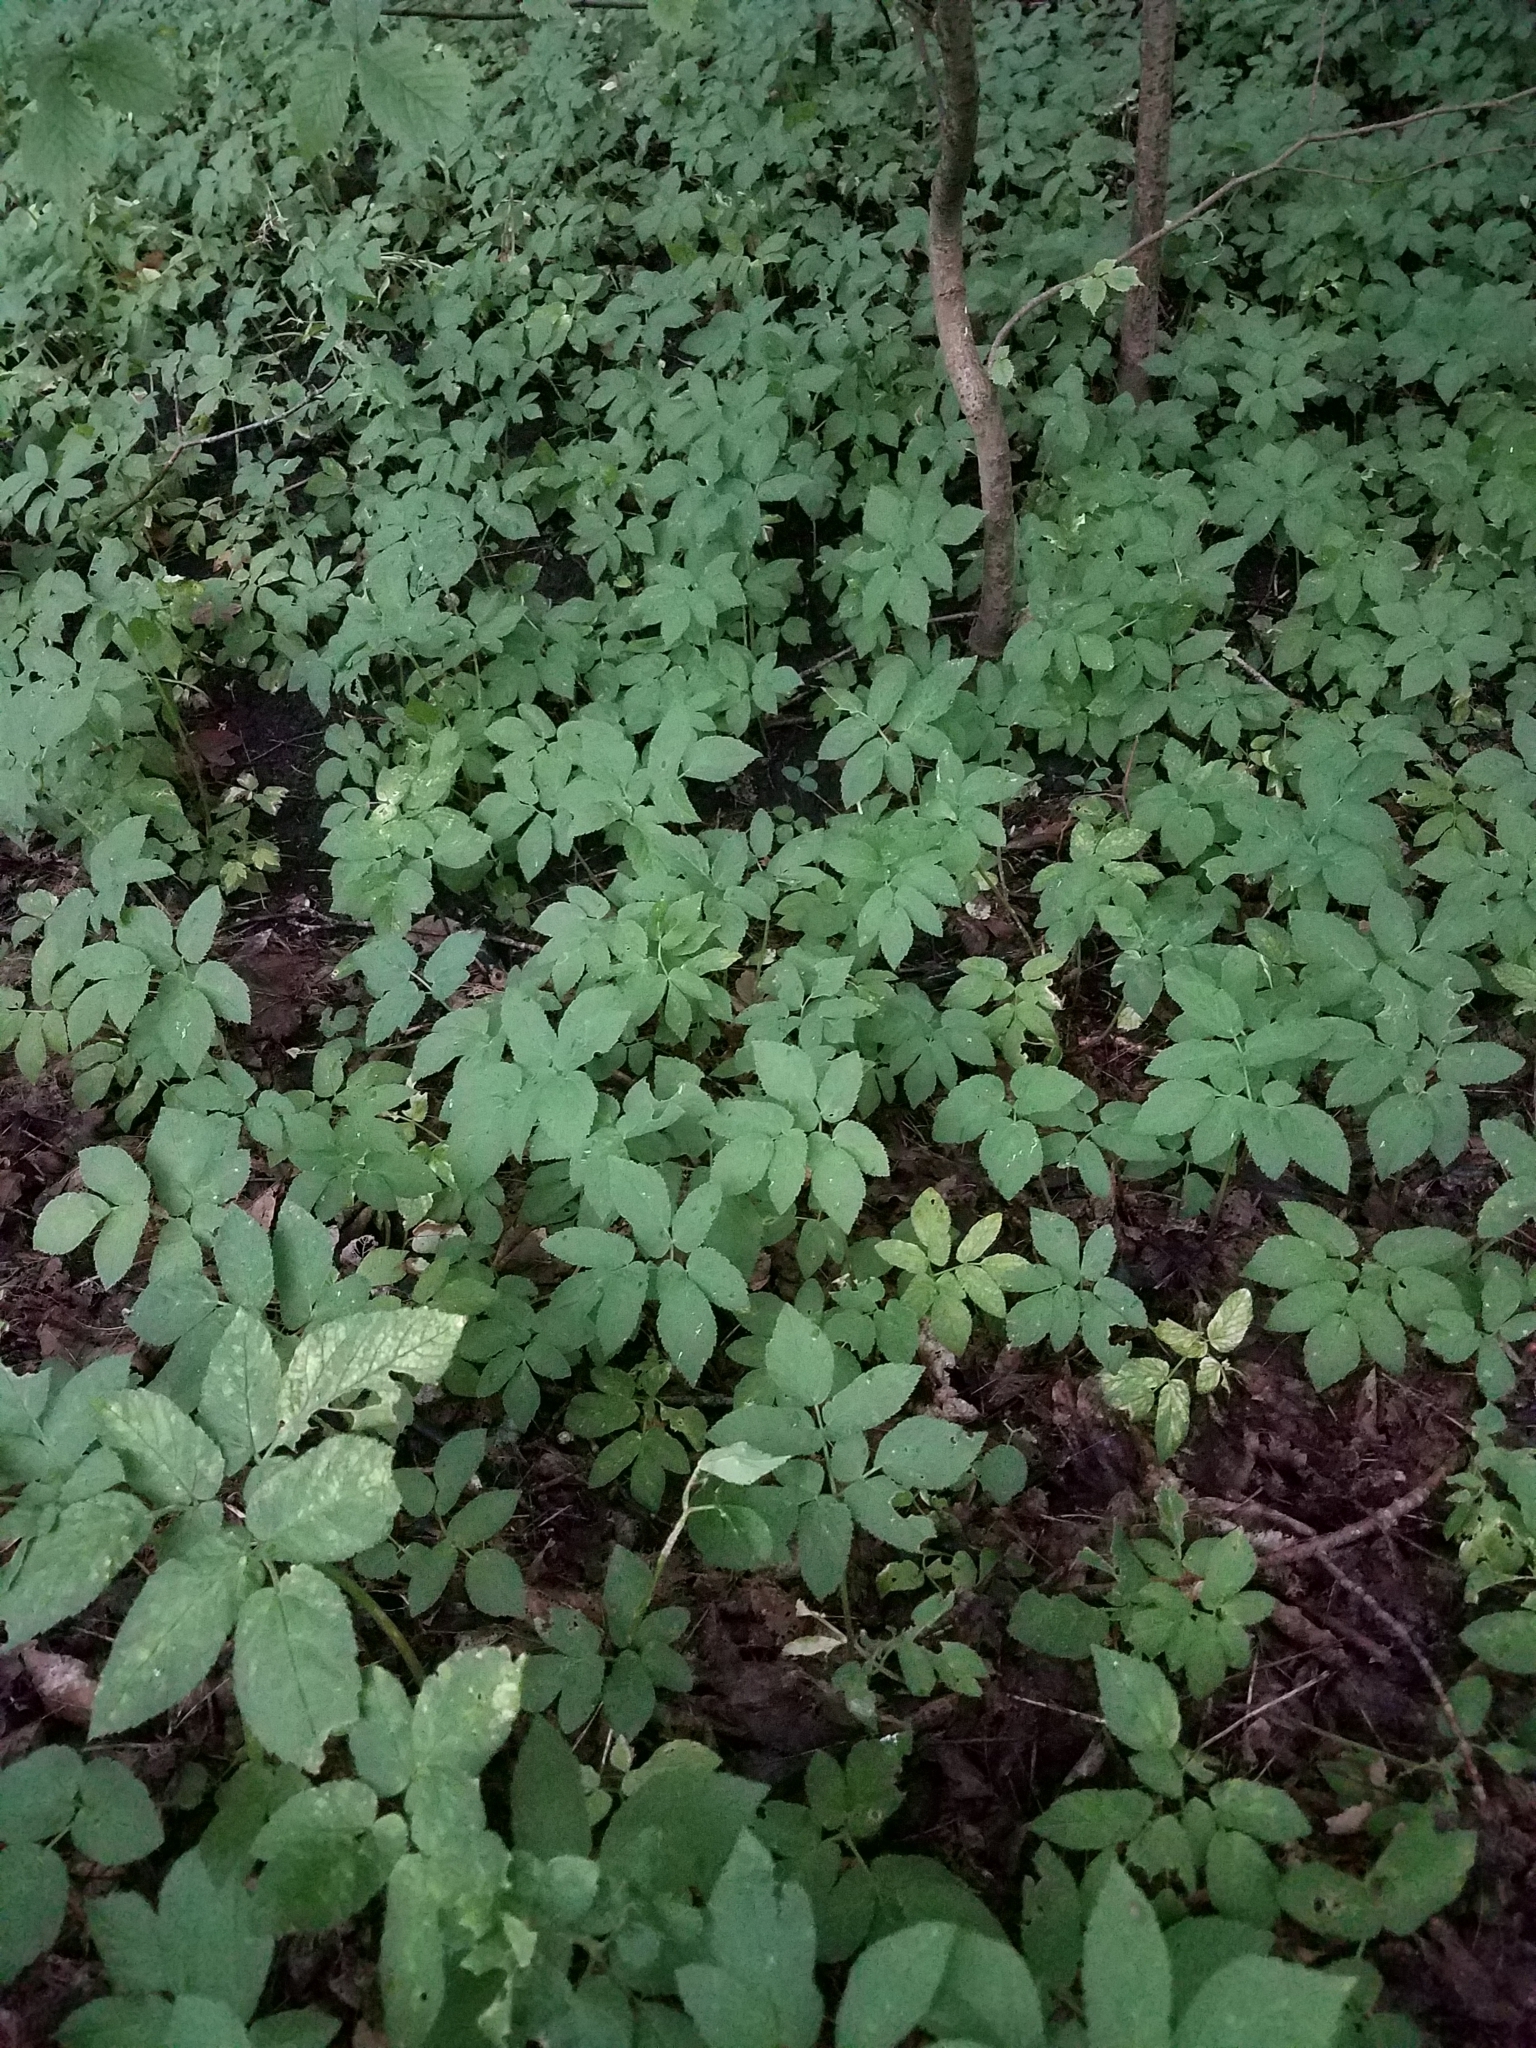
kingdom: Plantae
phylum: Tracheophyta
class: Magnoliopsida
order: Apiales
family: Apiaceae
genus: Aegopodium
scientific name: Aegopodium podagraria
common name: Ground-elder
